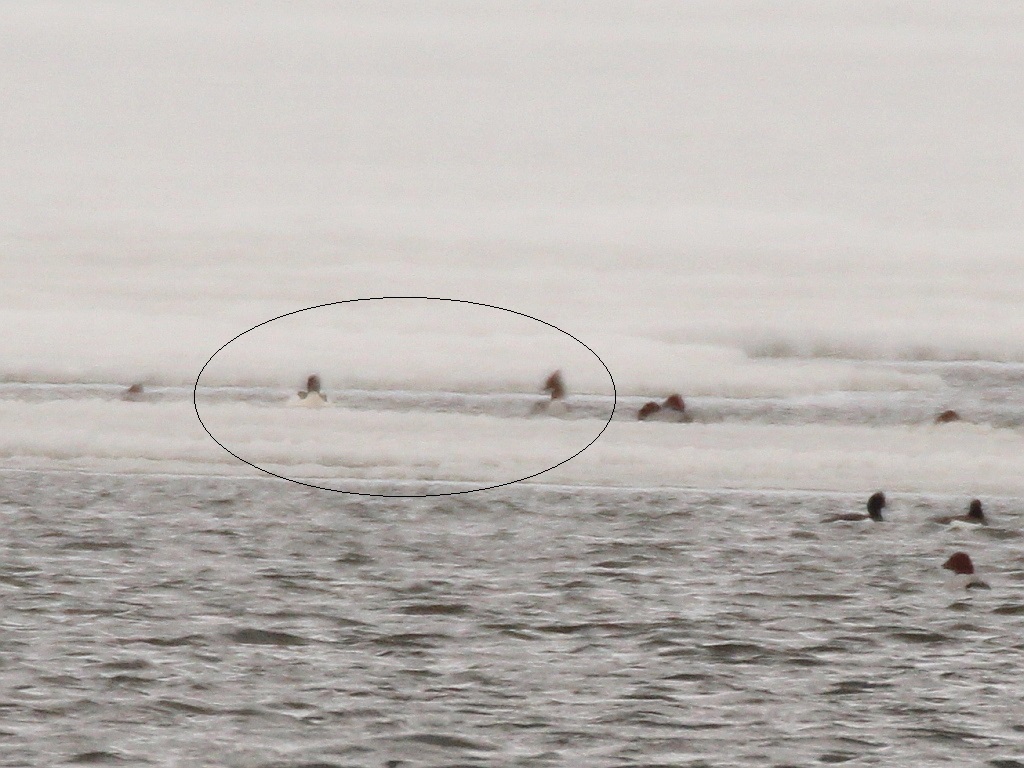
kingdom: Animalia
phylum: Chordata
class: Aves
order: Anseriformes
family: Anatidae
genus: Mergus
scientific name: Mergus merganser
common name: Common merganser
